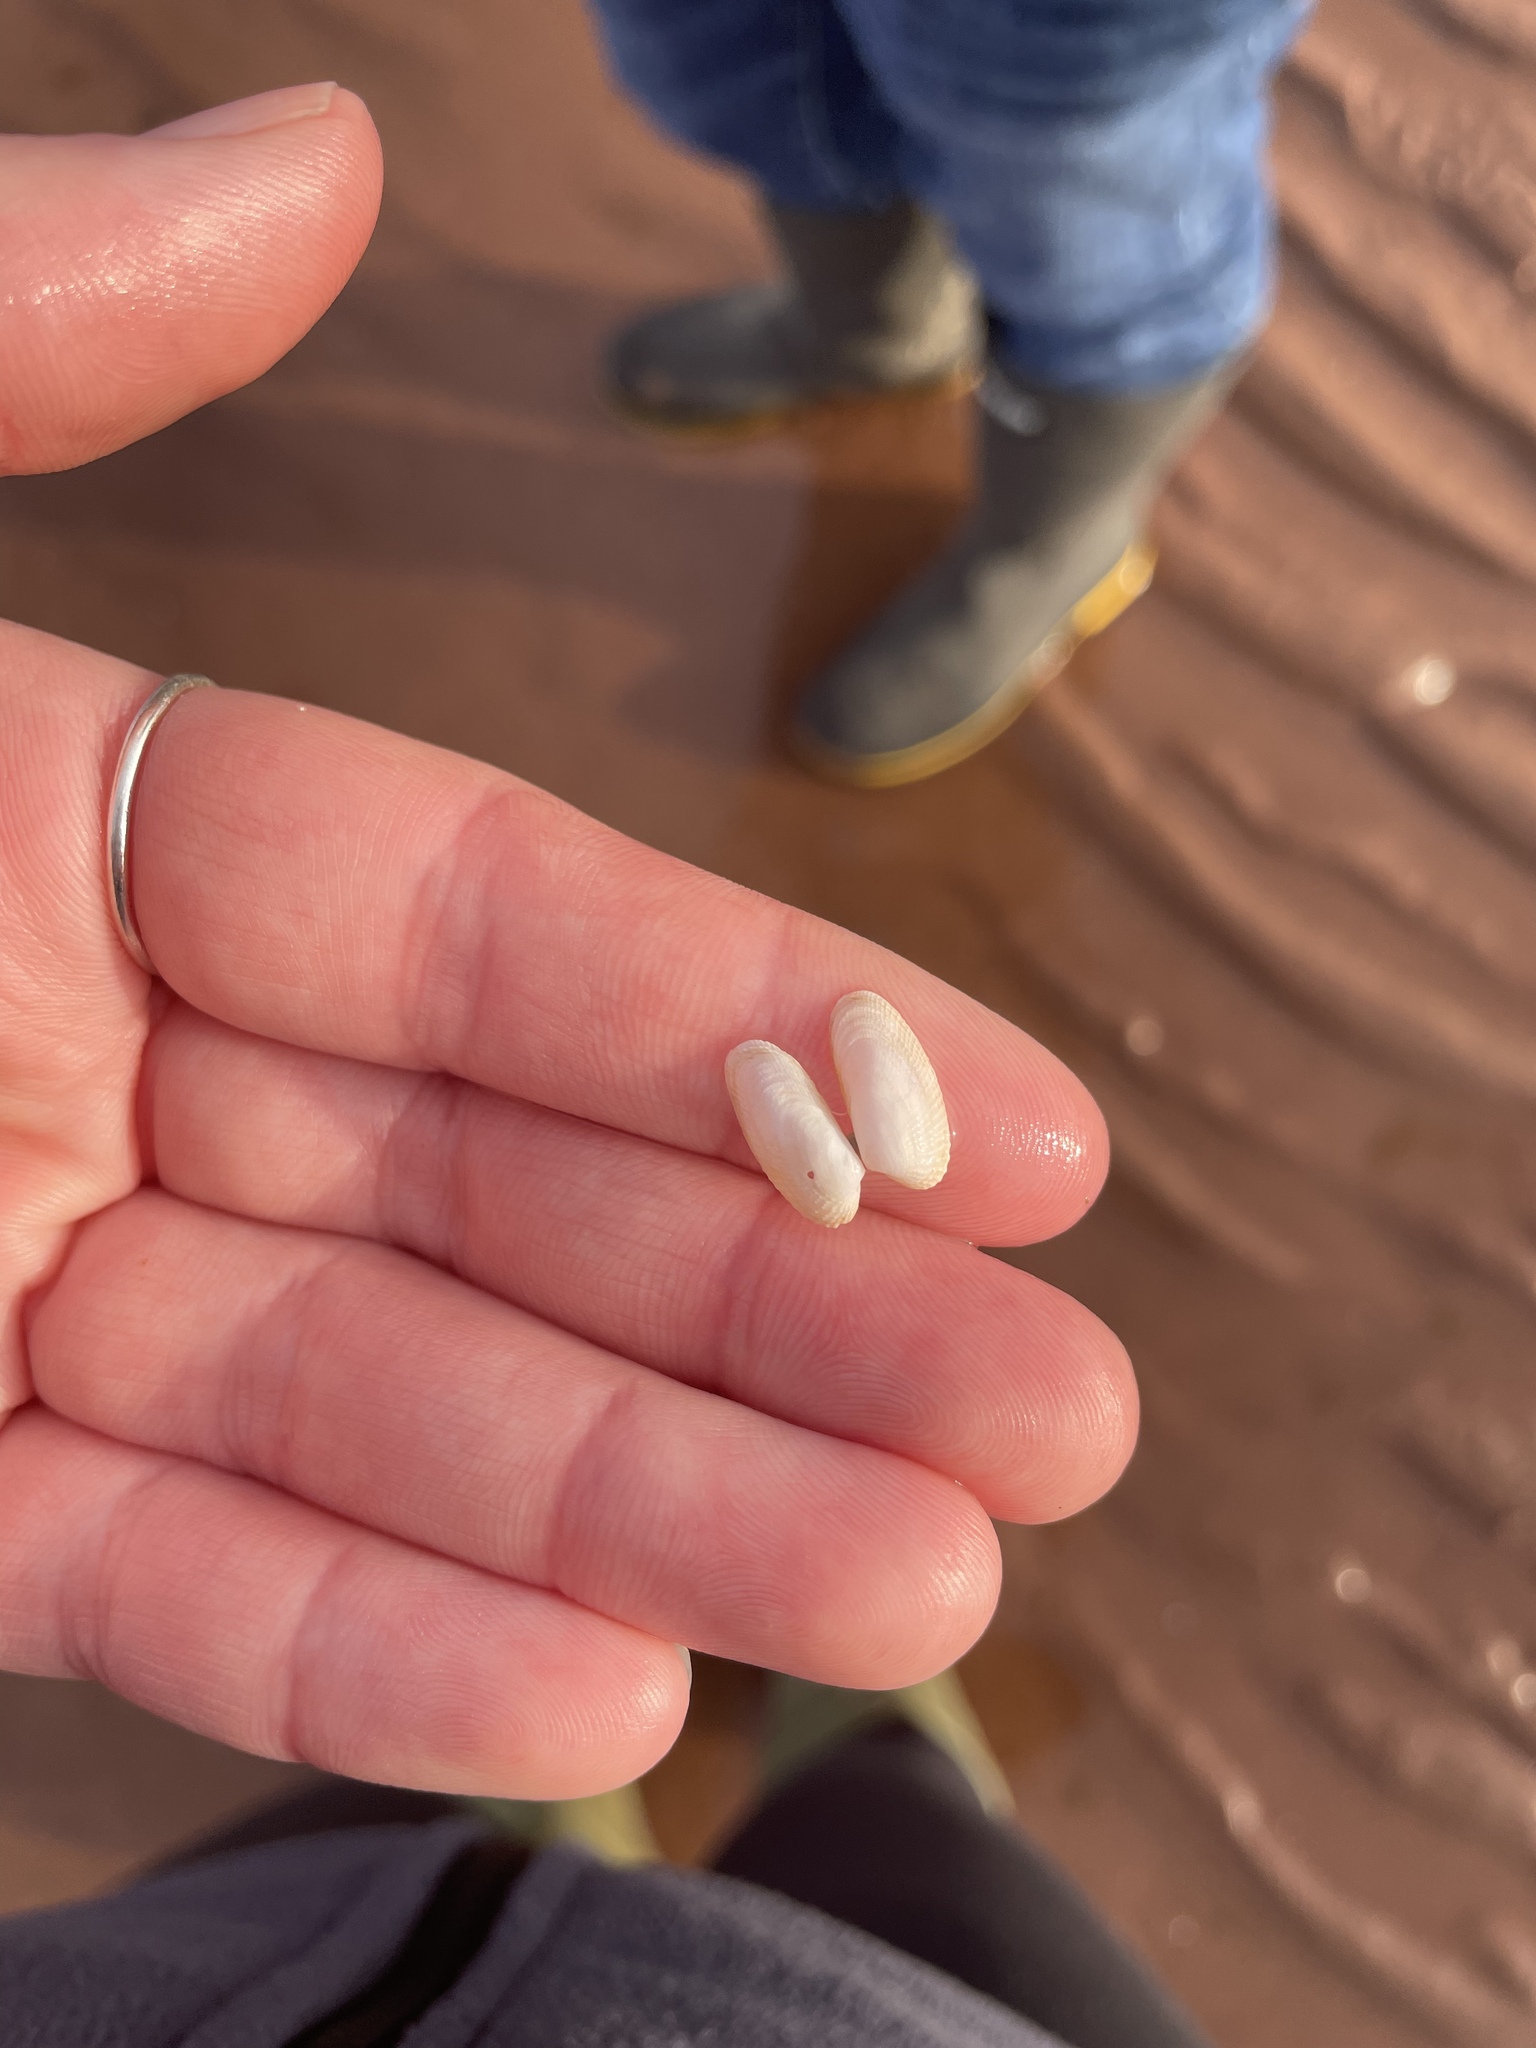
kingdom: Animalia
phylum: Mollusca
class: Bivalvia
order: Venerida
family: Veneridae
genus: Petricolaria
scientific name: Petricolaria pholadiformis
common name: American piddock
